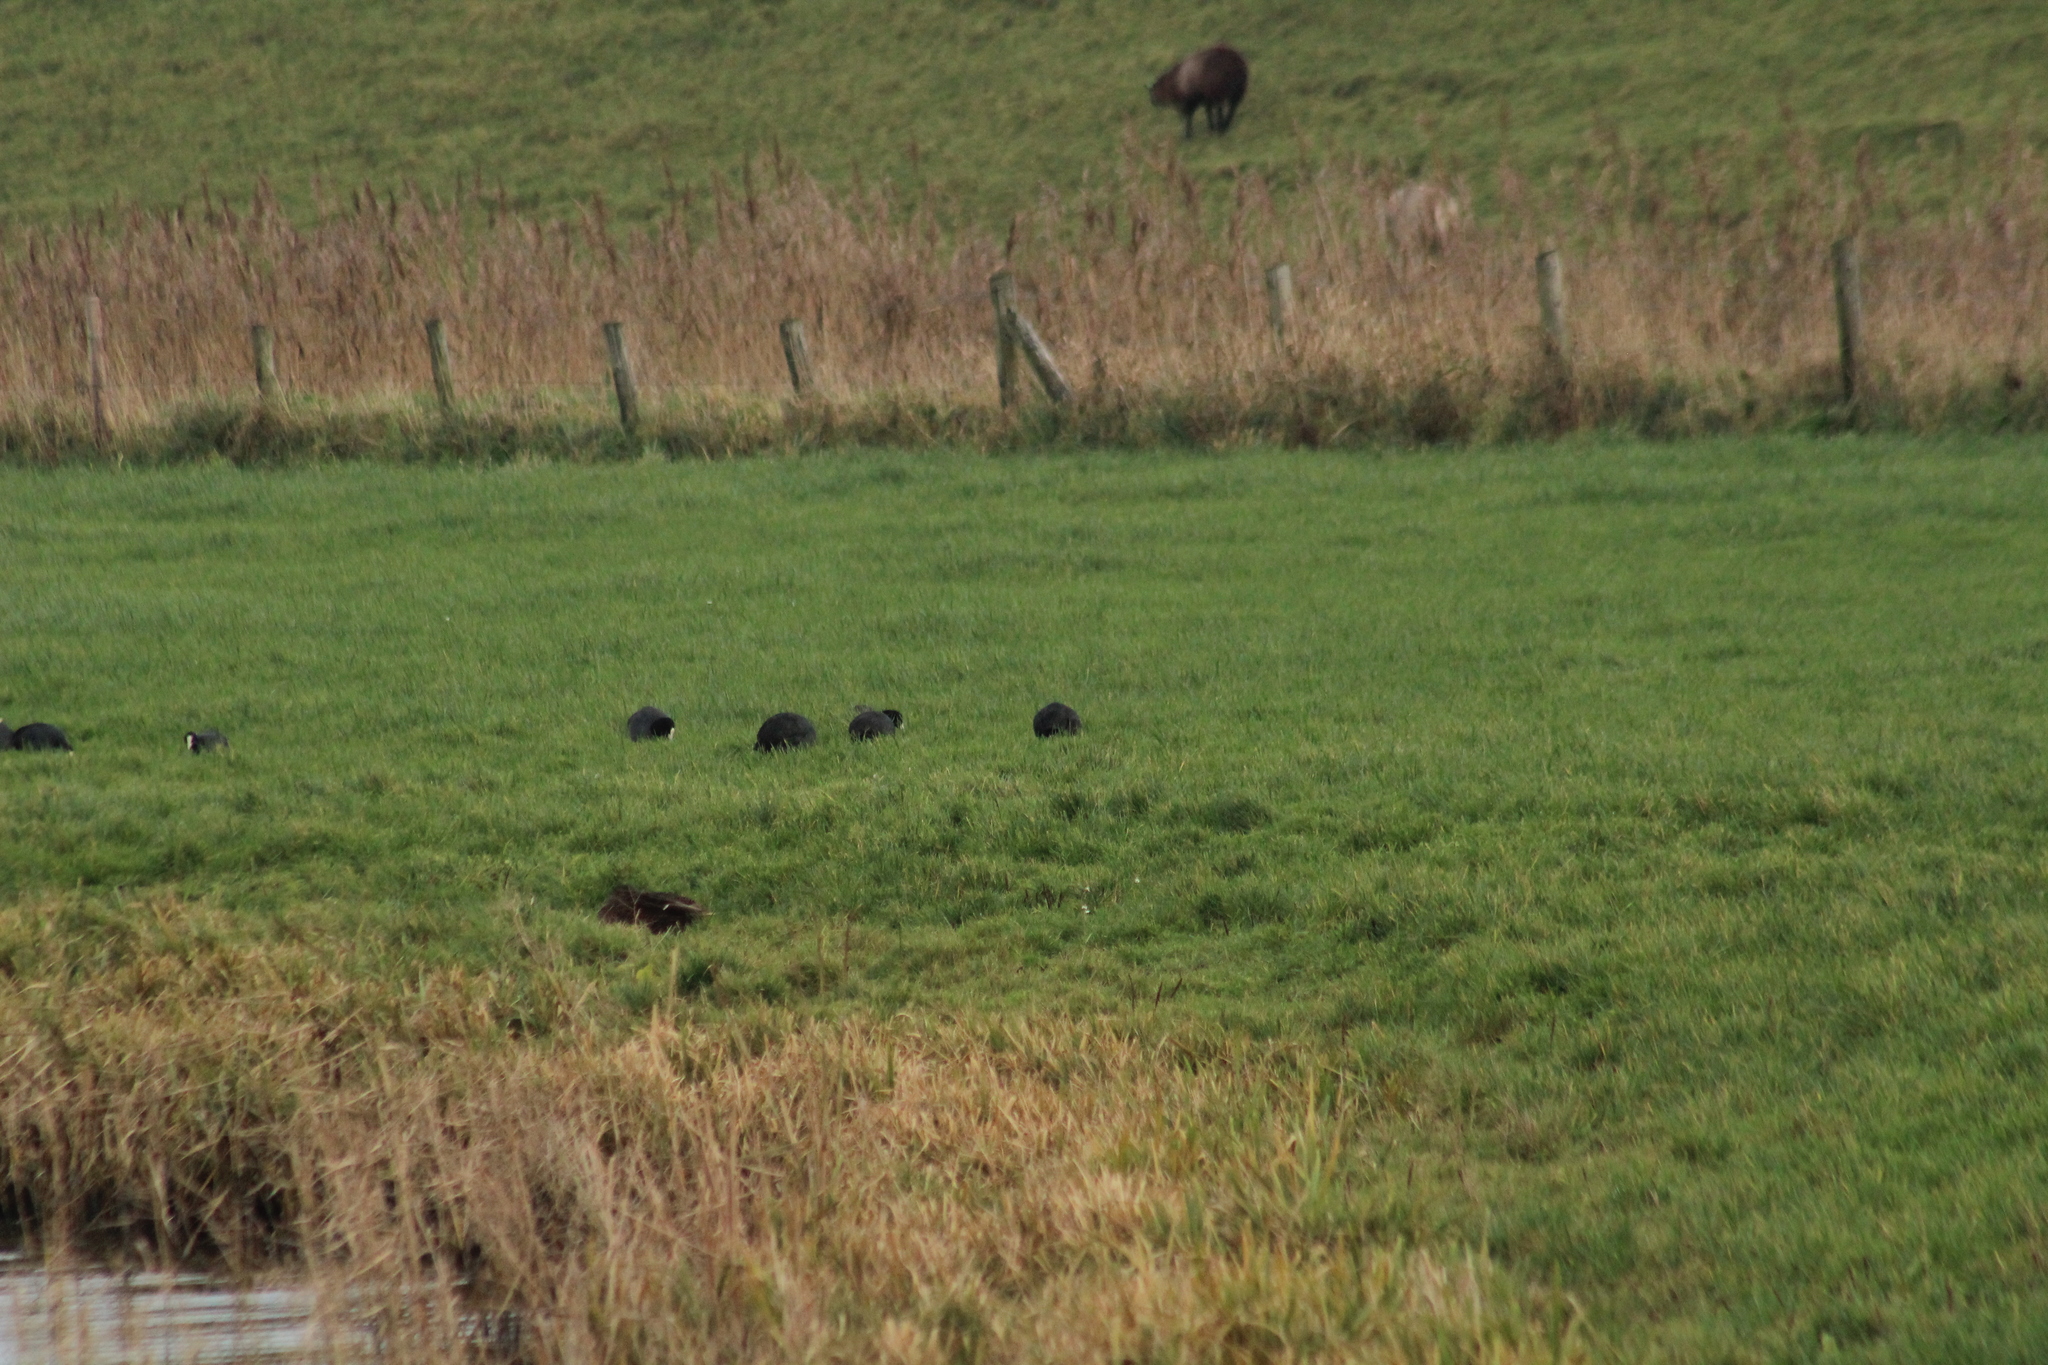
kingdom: Animalia
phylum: Chordata
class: Aves
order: Gruiformes
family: Rallidae
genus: Fulica
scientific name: Fulica atra
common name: Eurasian coot
